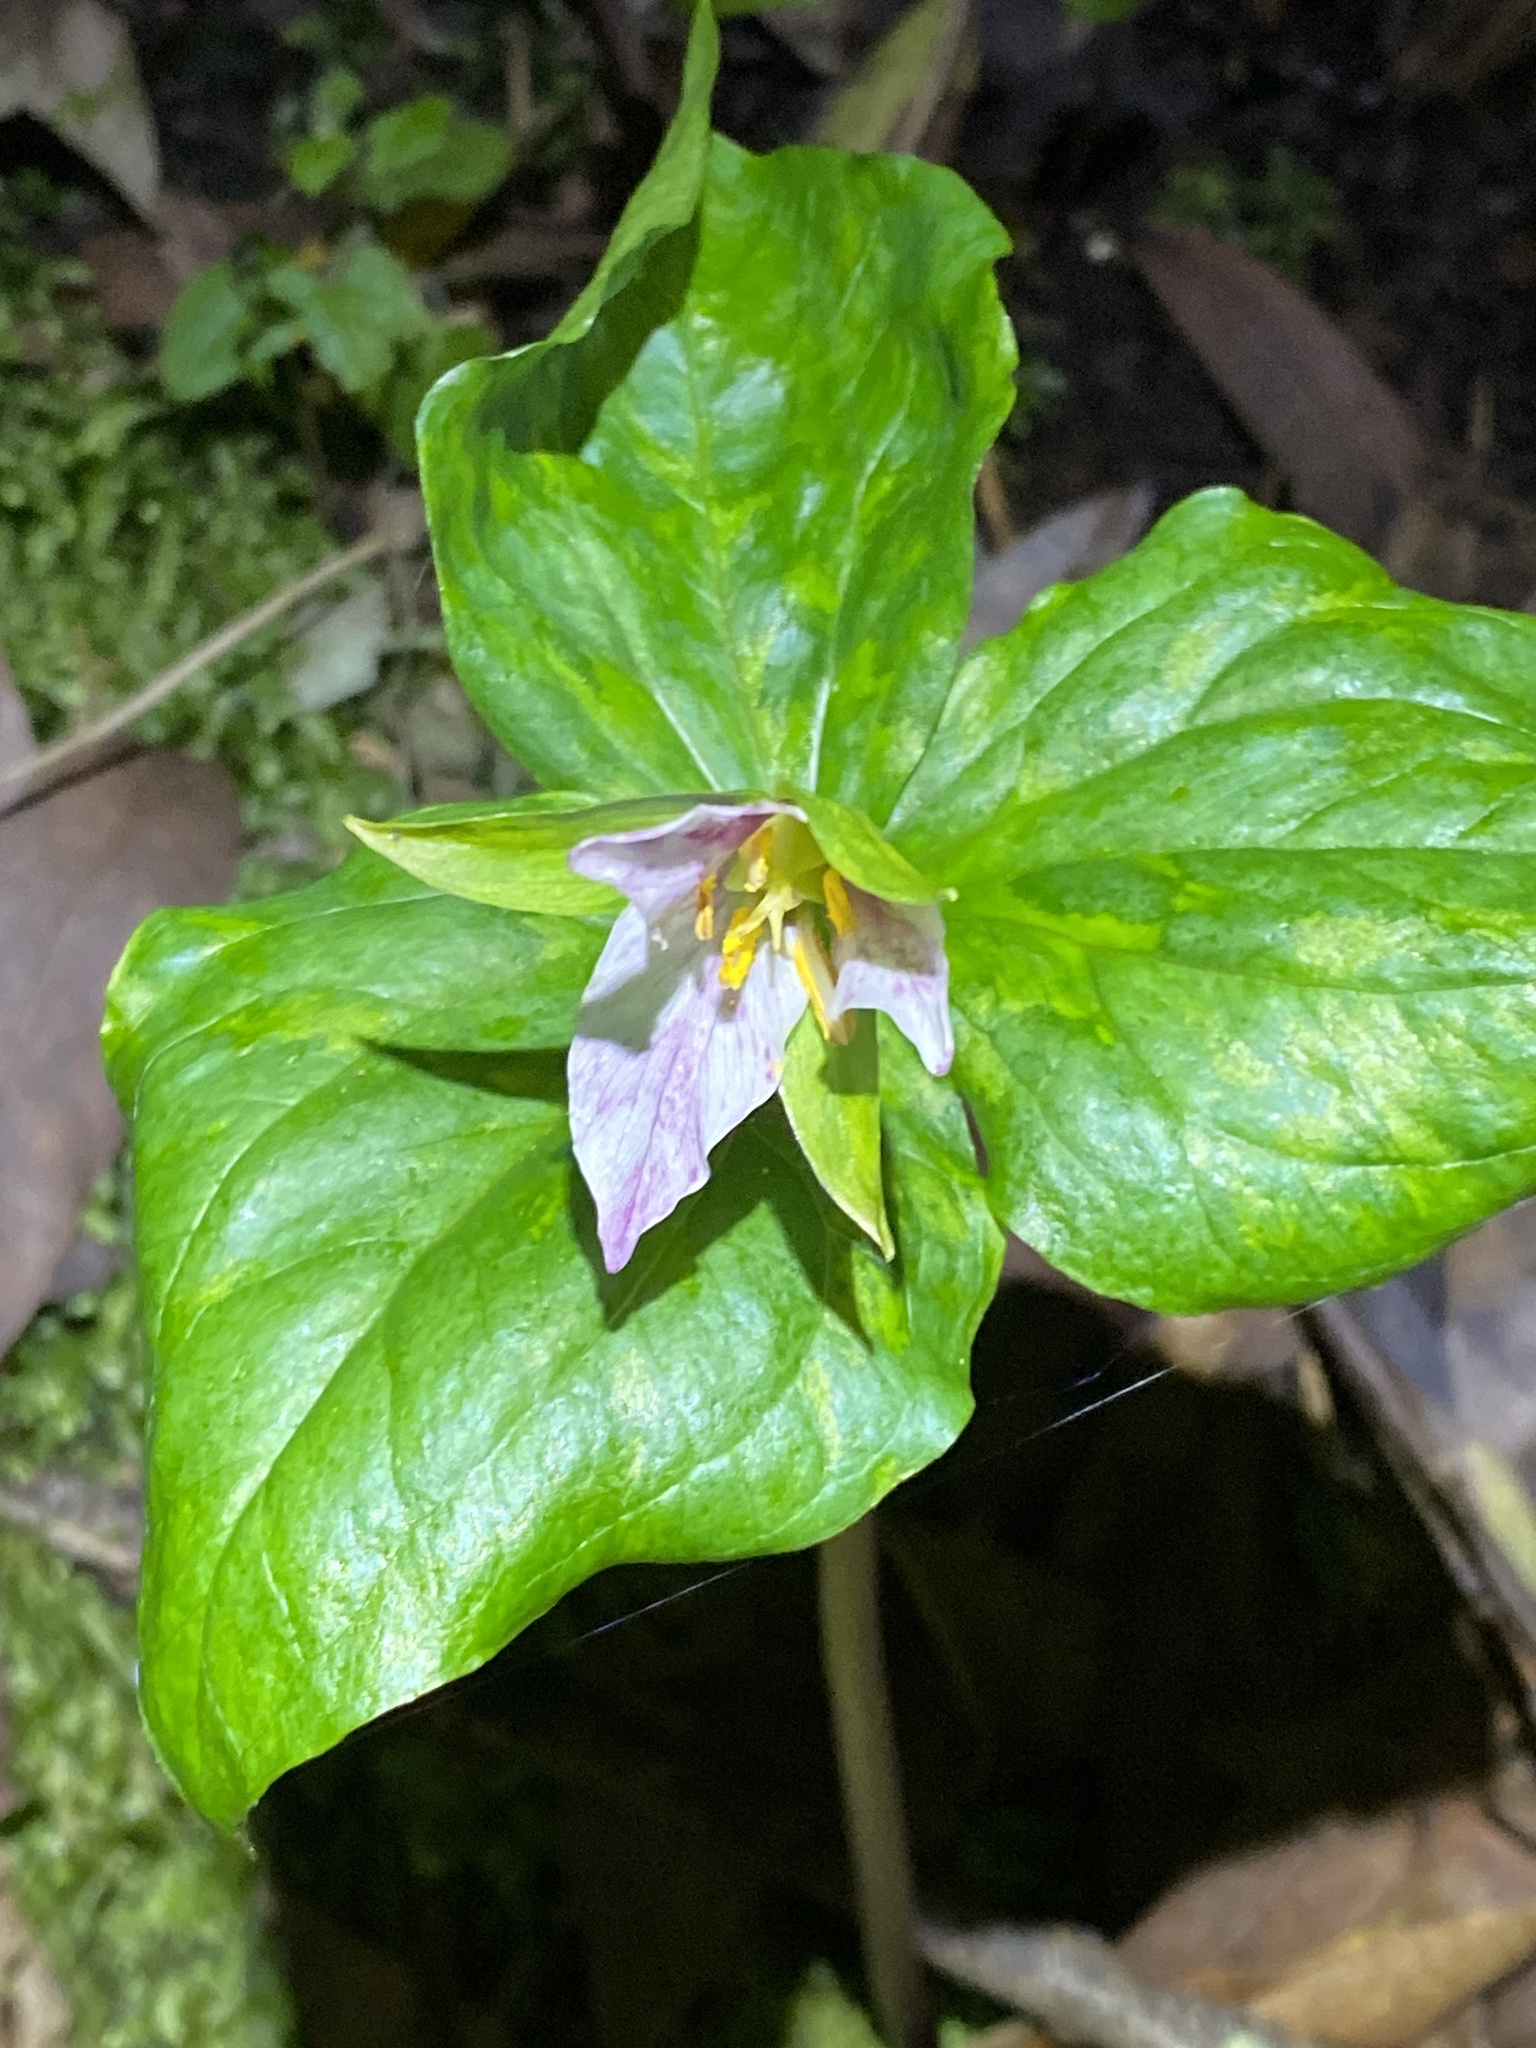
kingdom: Plantae
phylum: Tracheophyta
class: Liliopsida
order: Liliales
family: Melanthiaceae
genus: Trillium
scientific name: Trillium ovatum
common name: Pacific trillium
